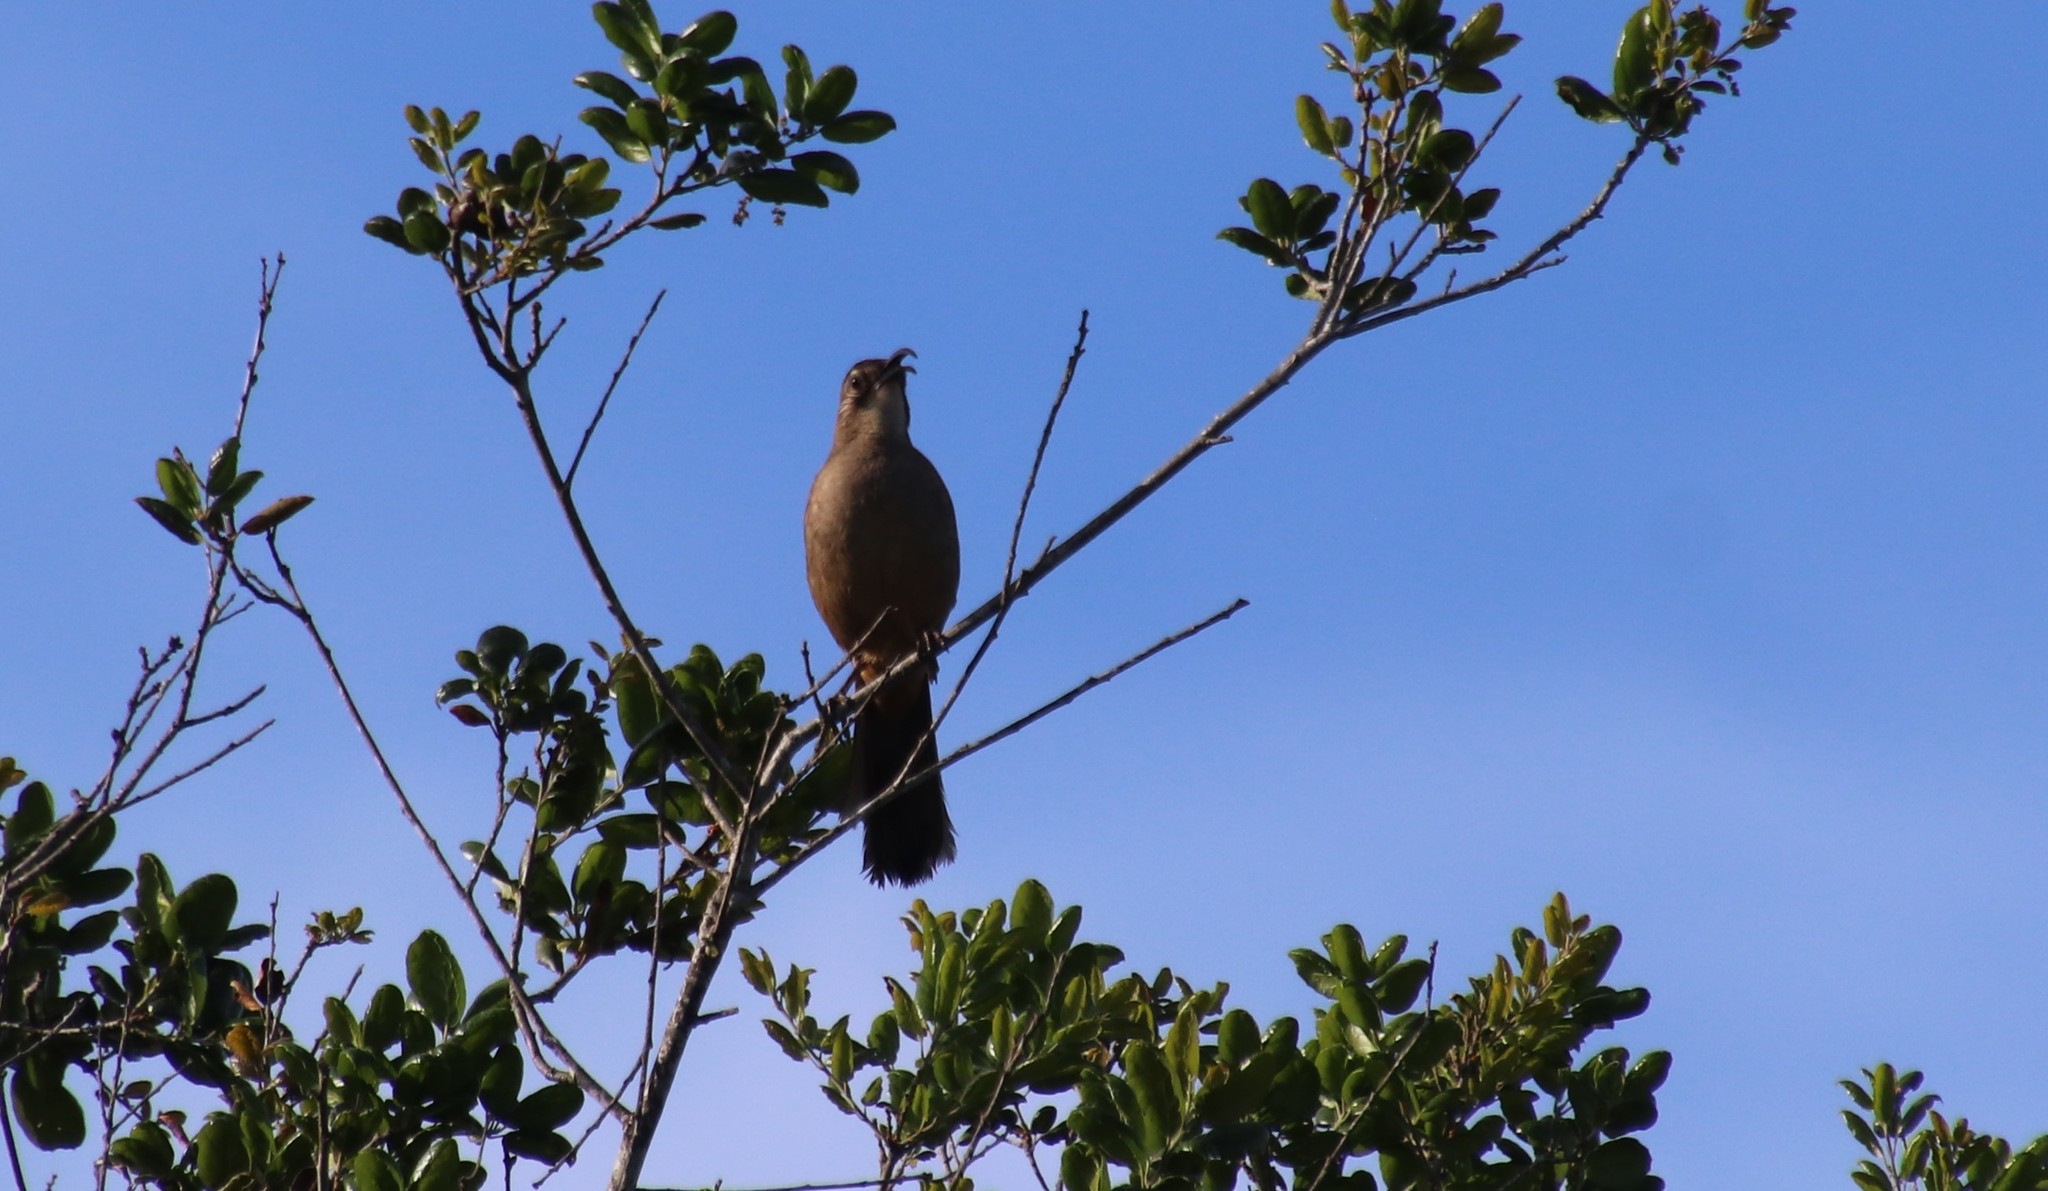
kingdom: Animalia
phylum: Chordata
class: Aves
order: Passeriformes
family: Mimidae
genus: Toxostoma
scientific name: Toxostoma redivivum
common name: California thrasher
